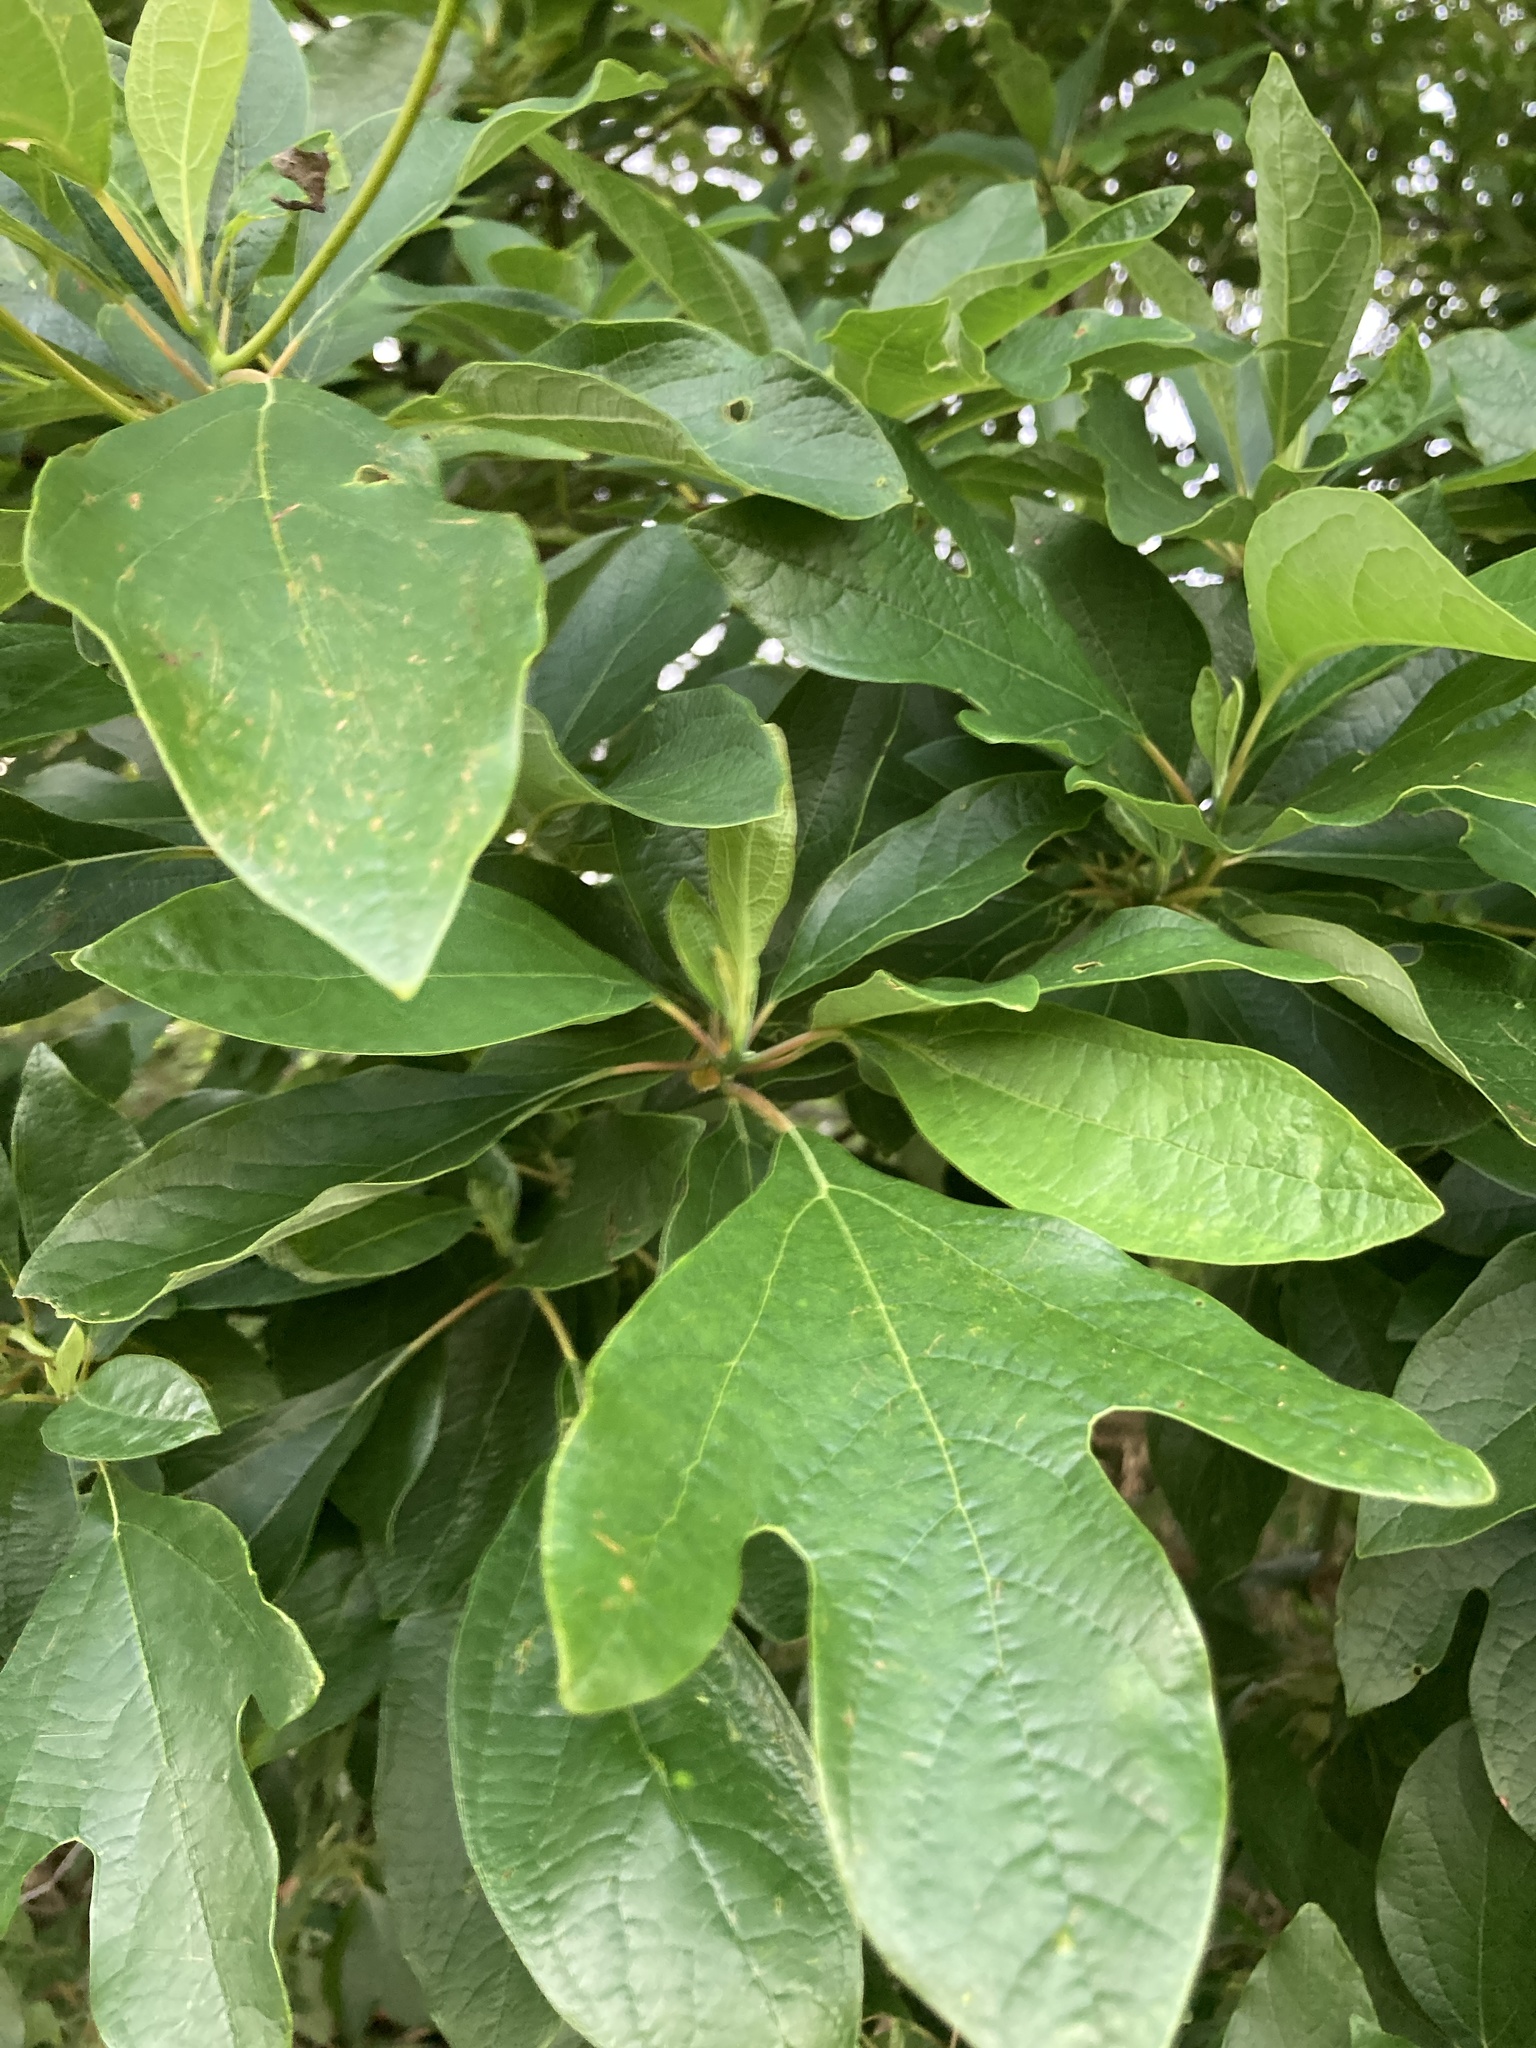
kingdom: Plantae
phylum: Tracheophyta
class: Magnoliopsida
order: Laurales
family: Lauraceae
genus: Sassafras
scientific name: Sassafras albidum
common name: Sassafras
